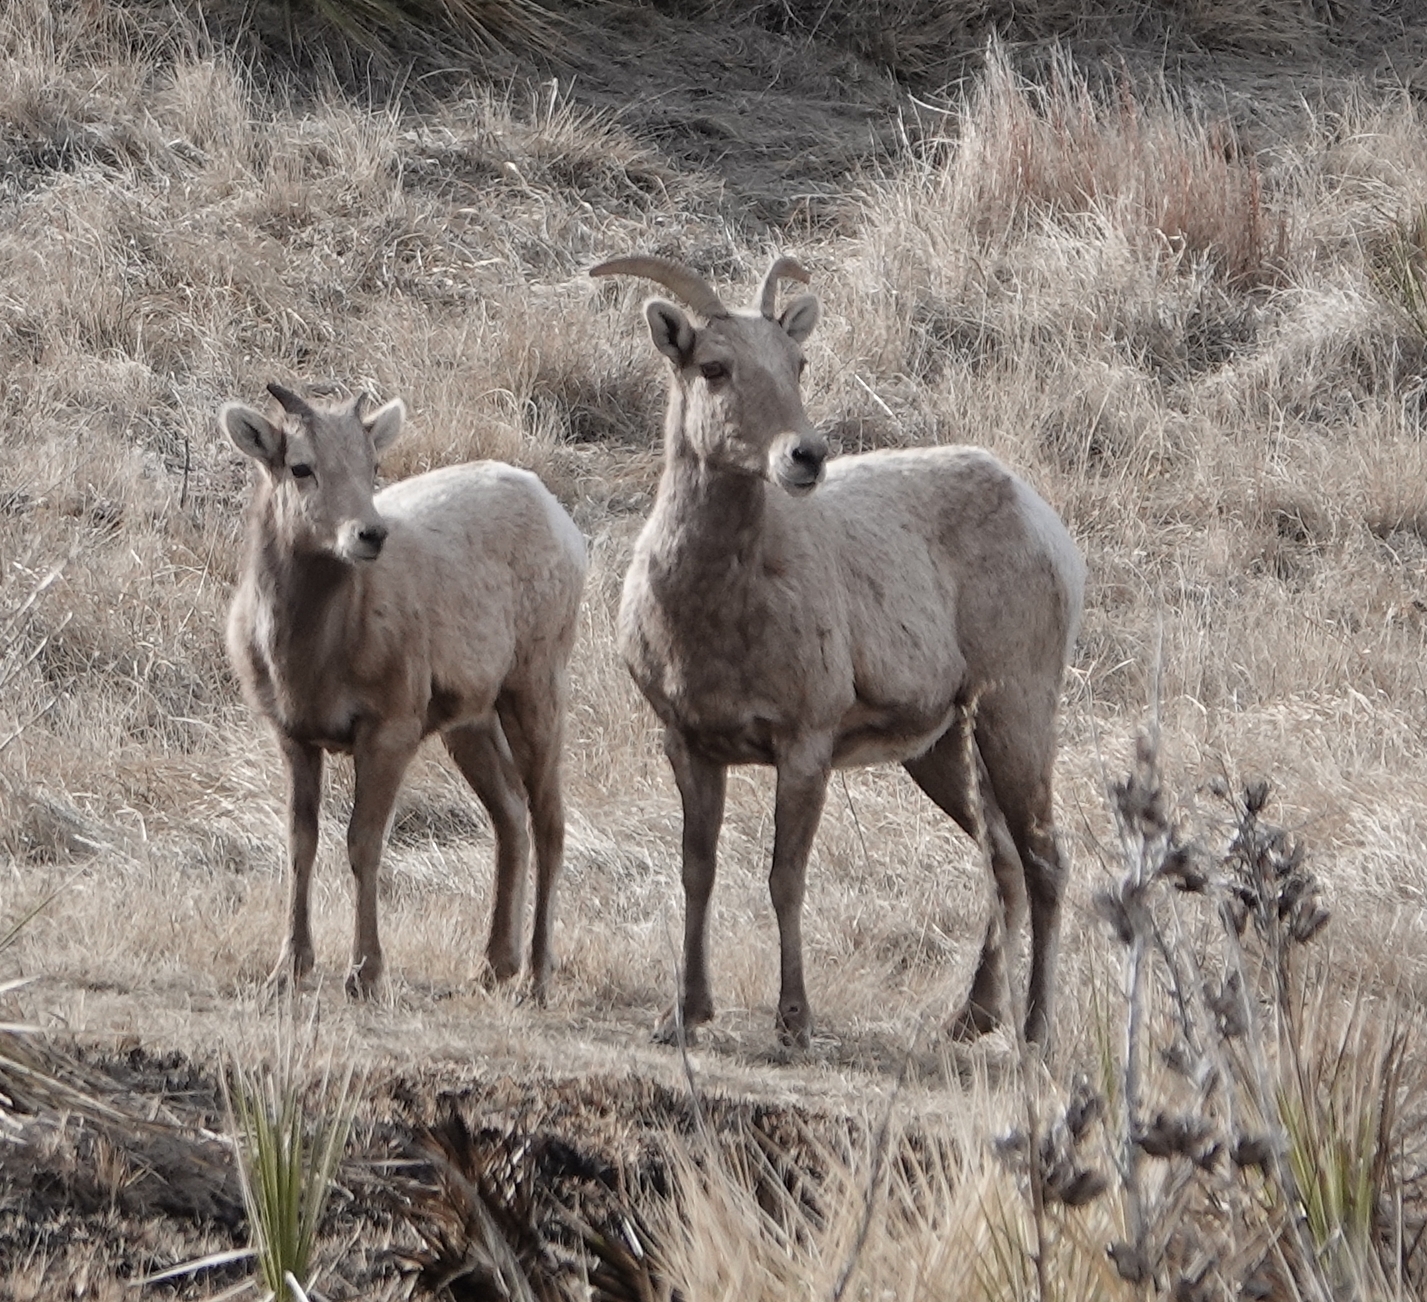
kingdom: Animalia
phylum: Chordata
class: Mammalia
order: Artiodactyla
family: Bovidae
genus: Ovis
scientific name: Ovis canadensis
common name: Bighorn sheep
